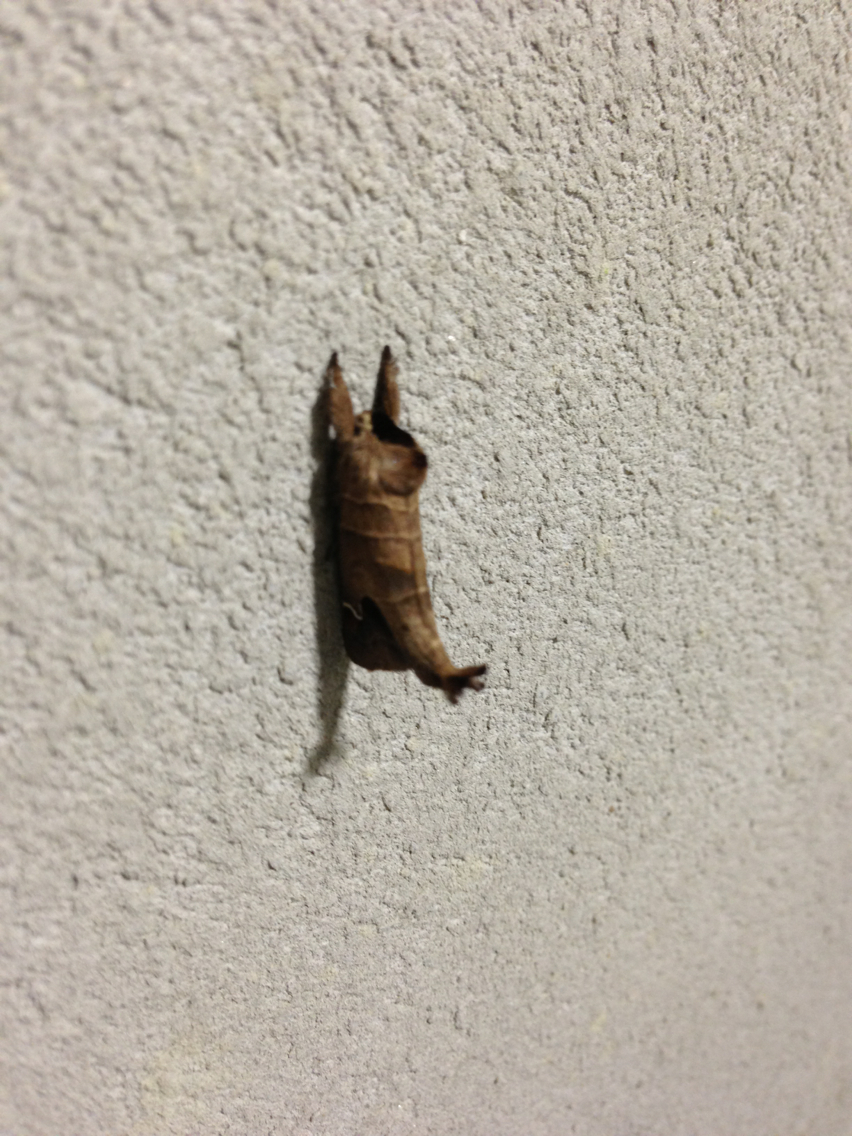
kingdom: Animalia
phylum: Arthropoda
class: Insecta
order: Lepidoptera
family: Notodontidae
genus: Clostera
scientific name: Clostera albosigma
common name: Sigmoid prominent
